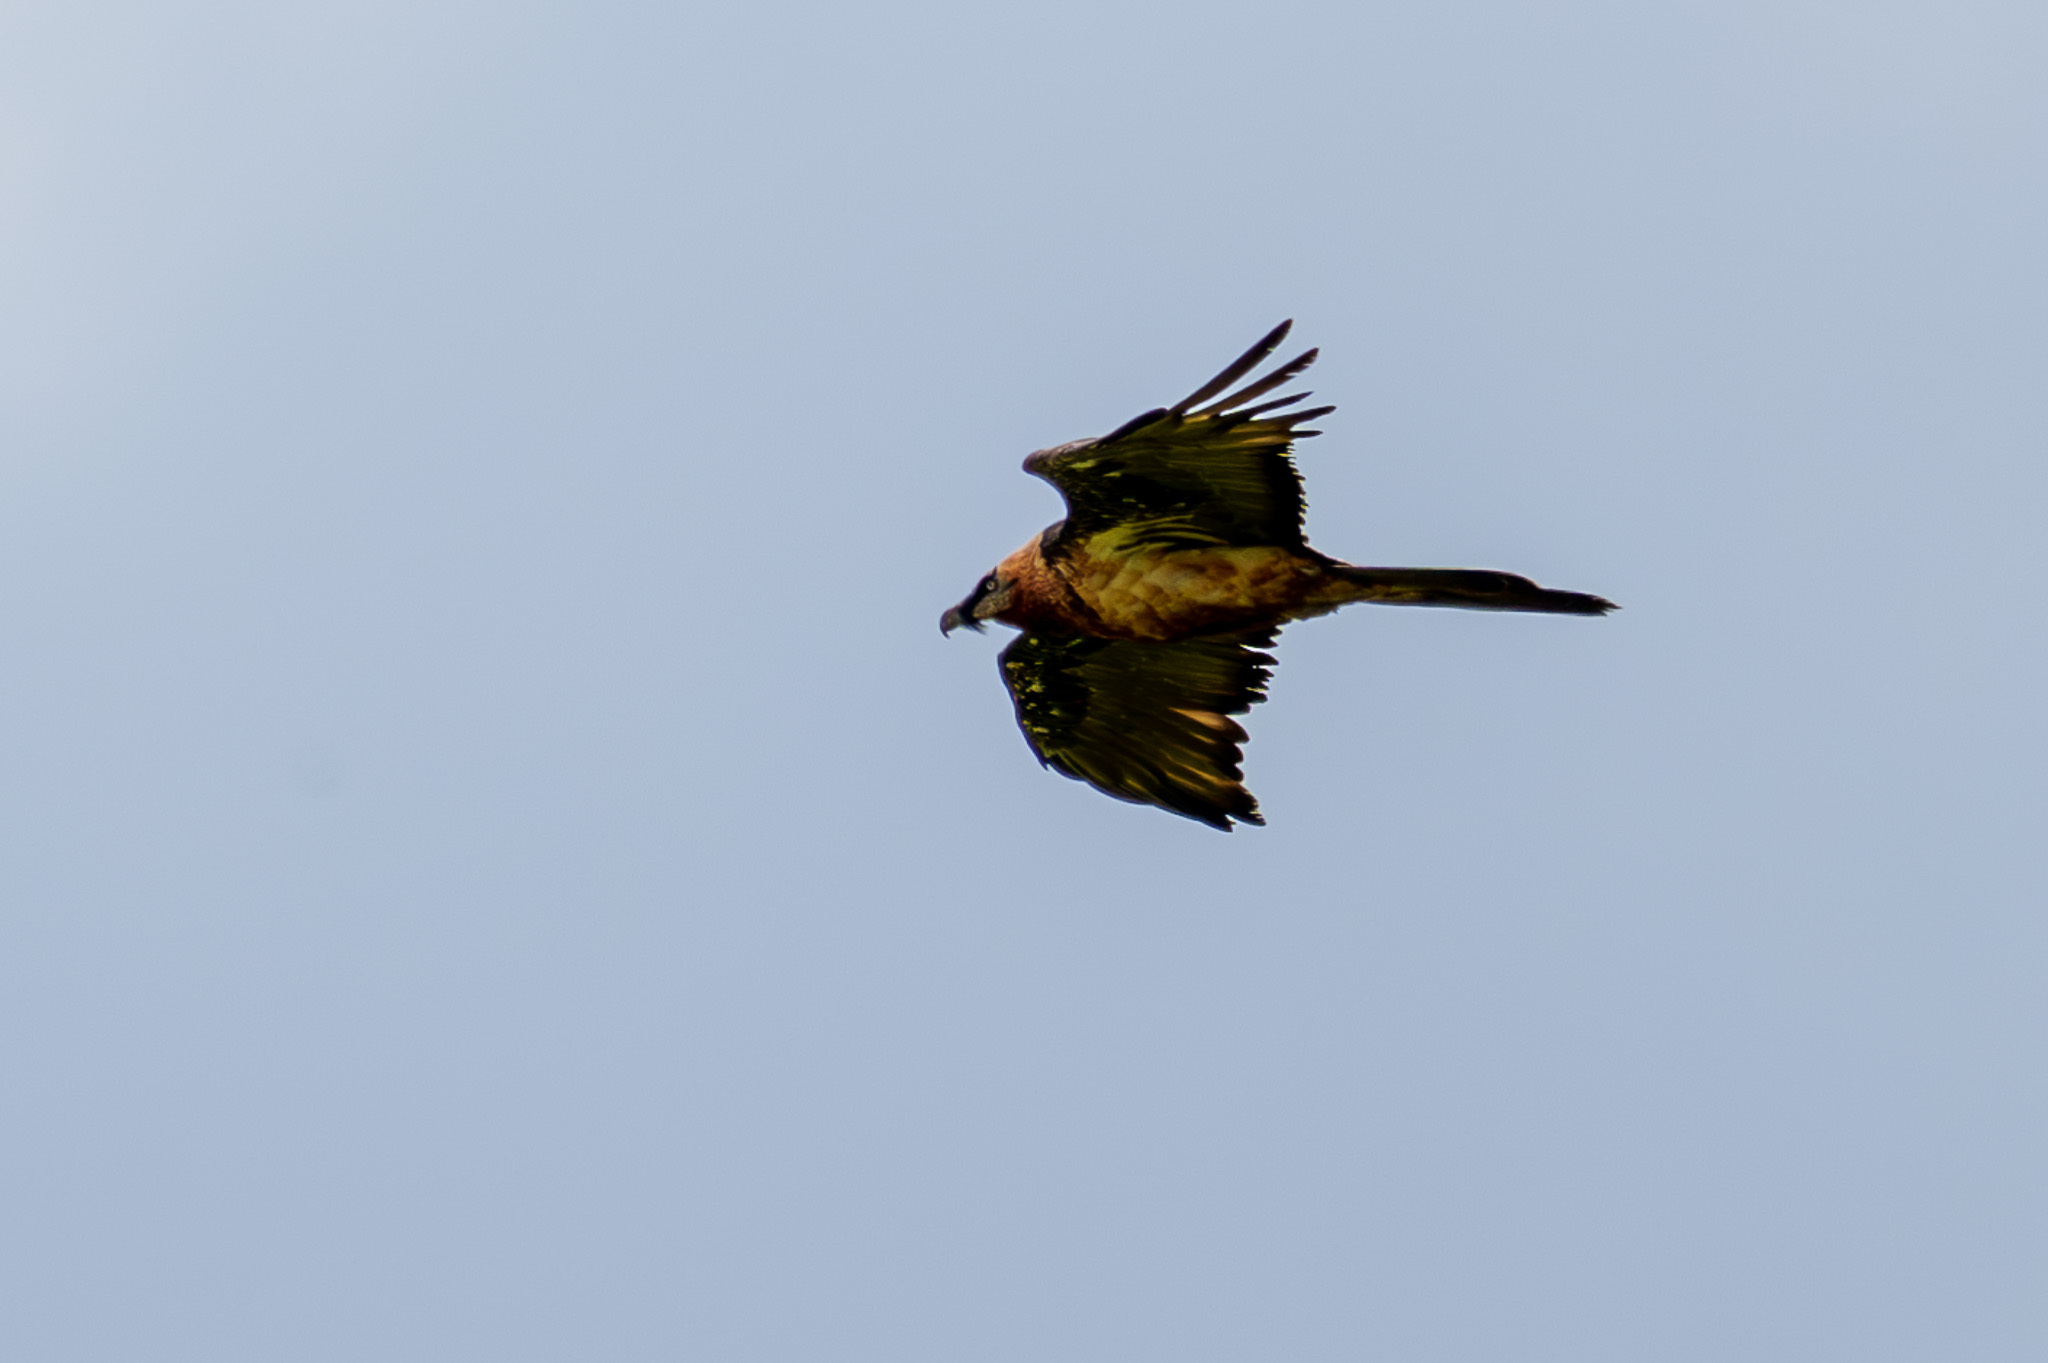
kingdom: Animalia
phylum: Chordata
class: Aves
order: Accipitriformes
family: Accipitridae
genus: Gypaetus
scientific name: Gypaetus barbatus
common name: Bearded vulture
